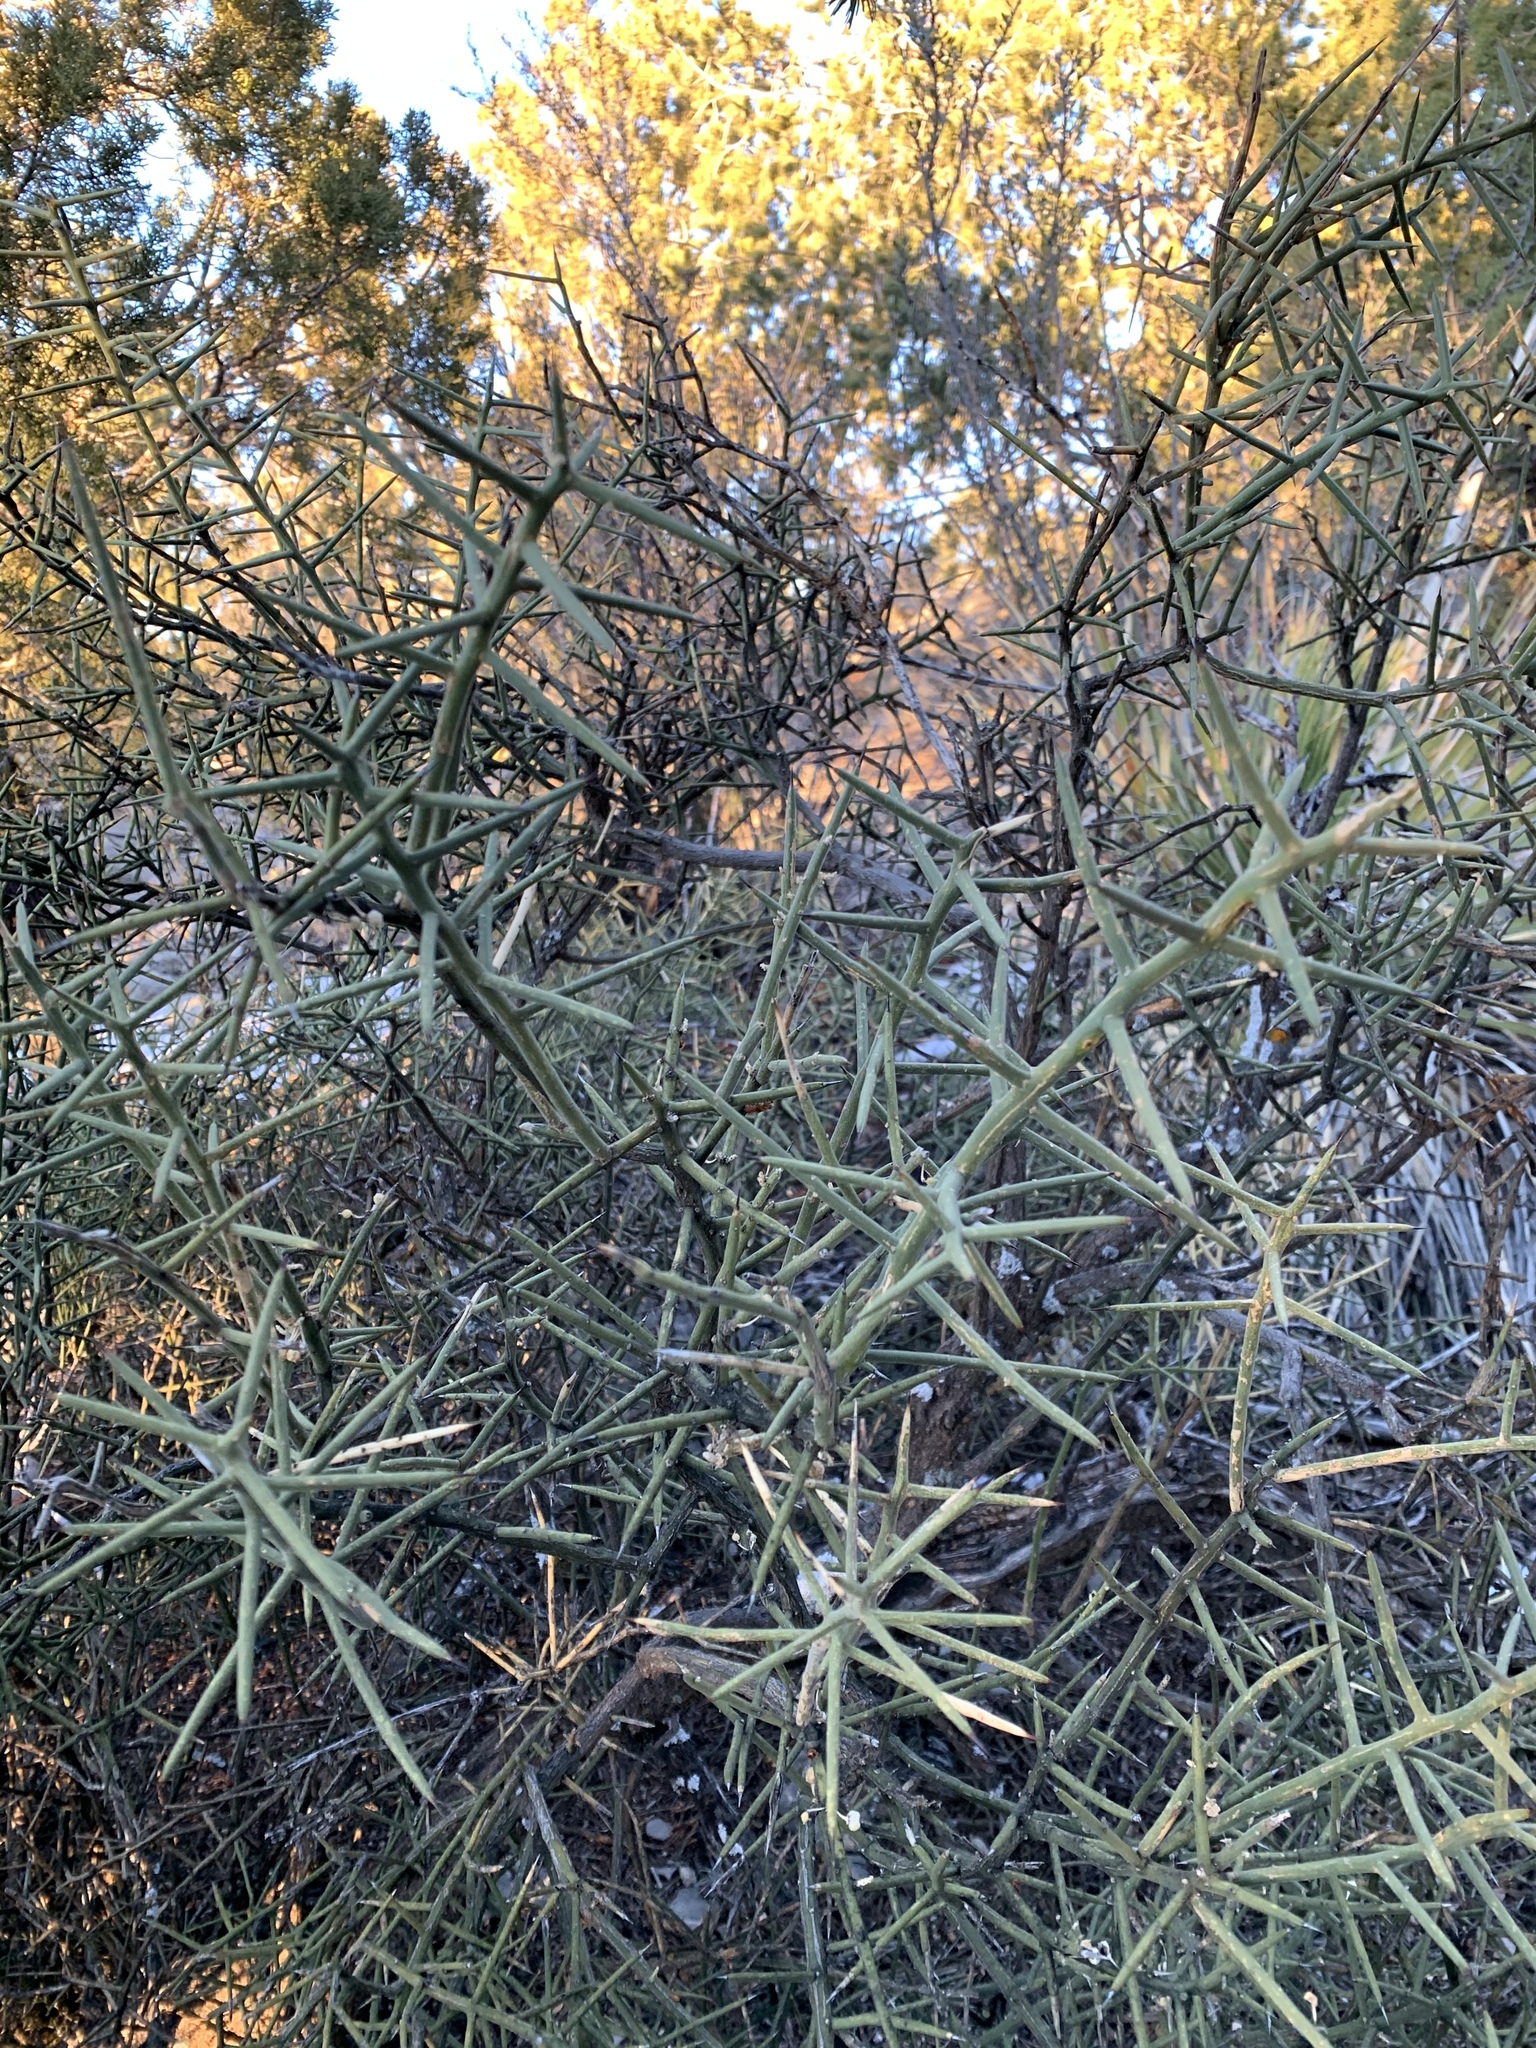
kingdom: Plantae
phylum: Tracheophyta
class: Magnoliopsida
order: Brassicales
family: Koeberliniaceae
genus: Koeberlinia
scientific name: Koeberlinia spinosa
